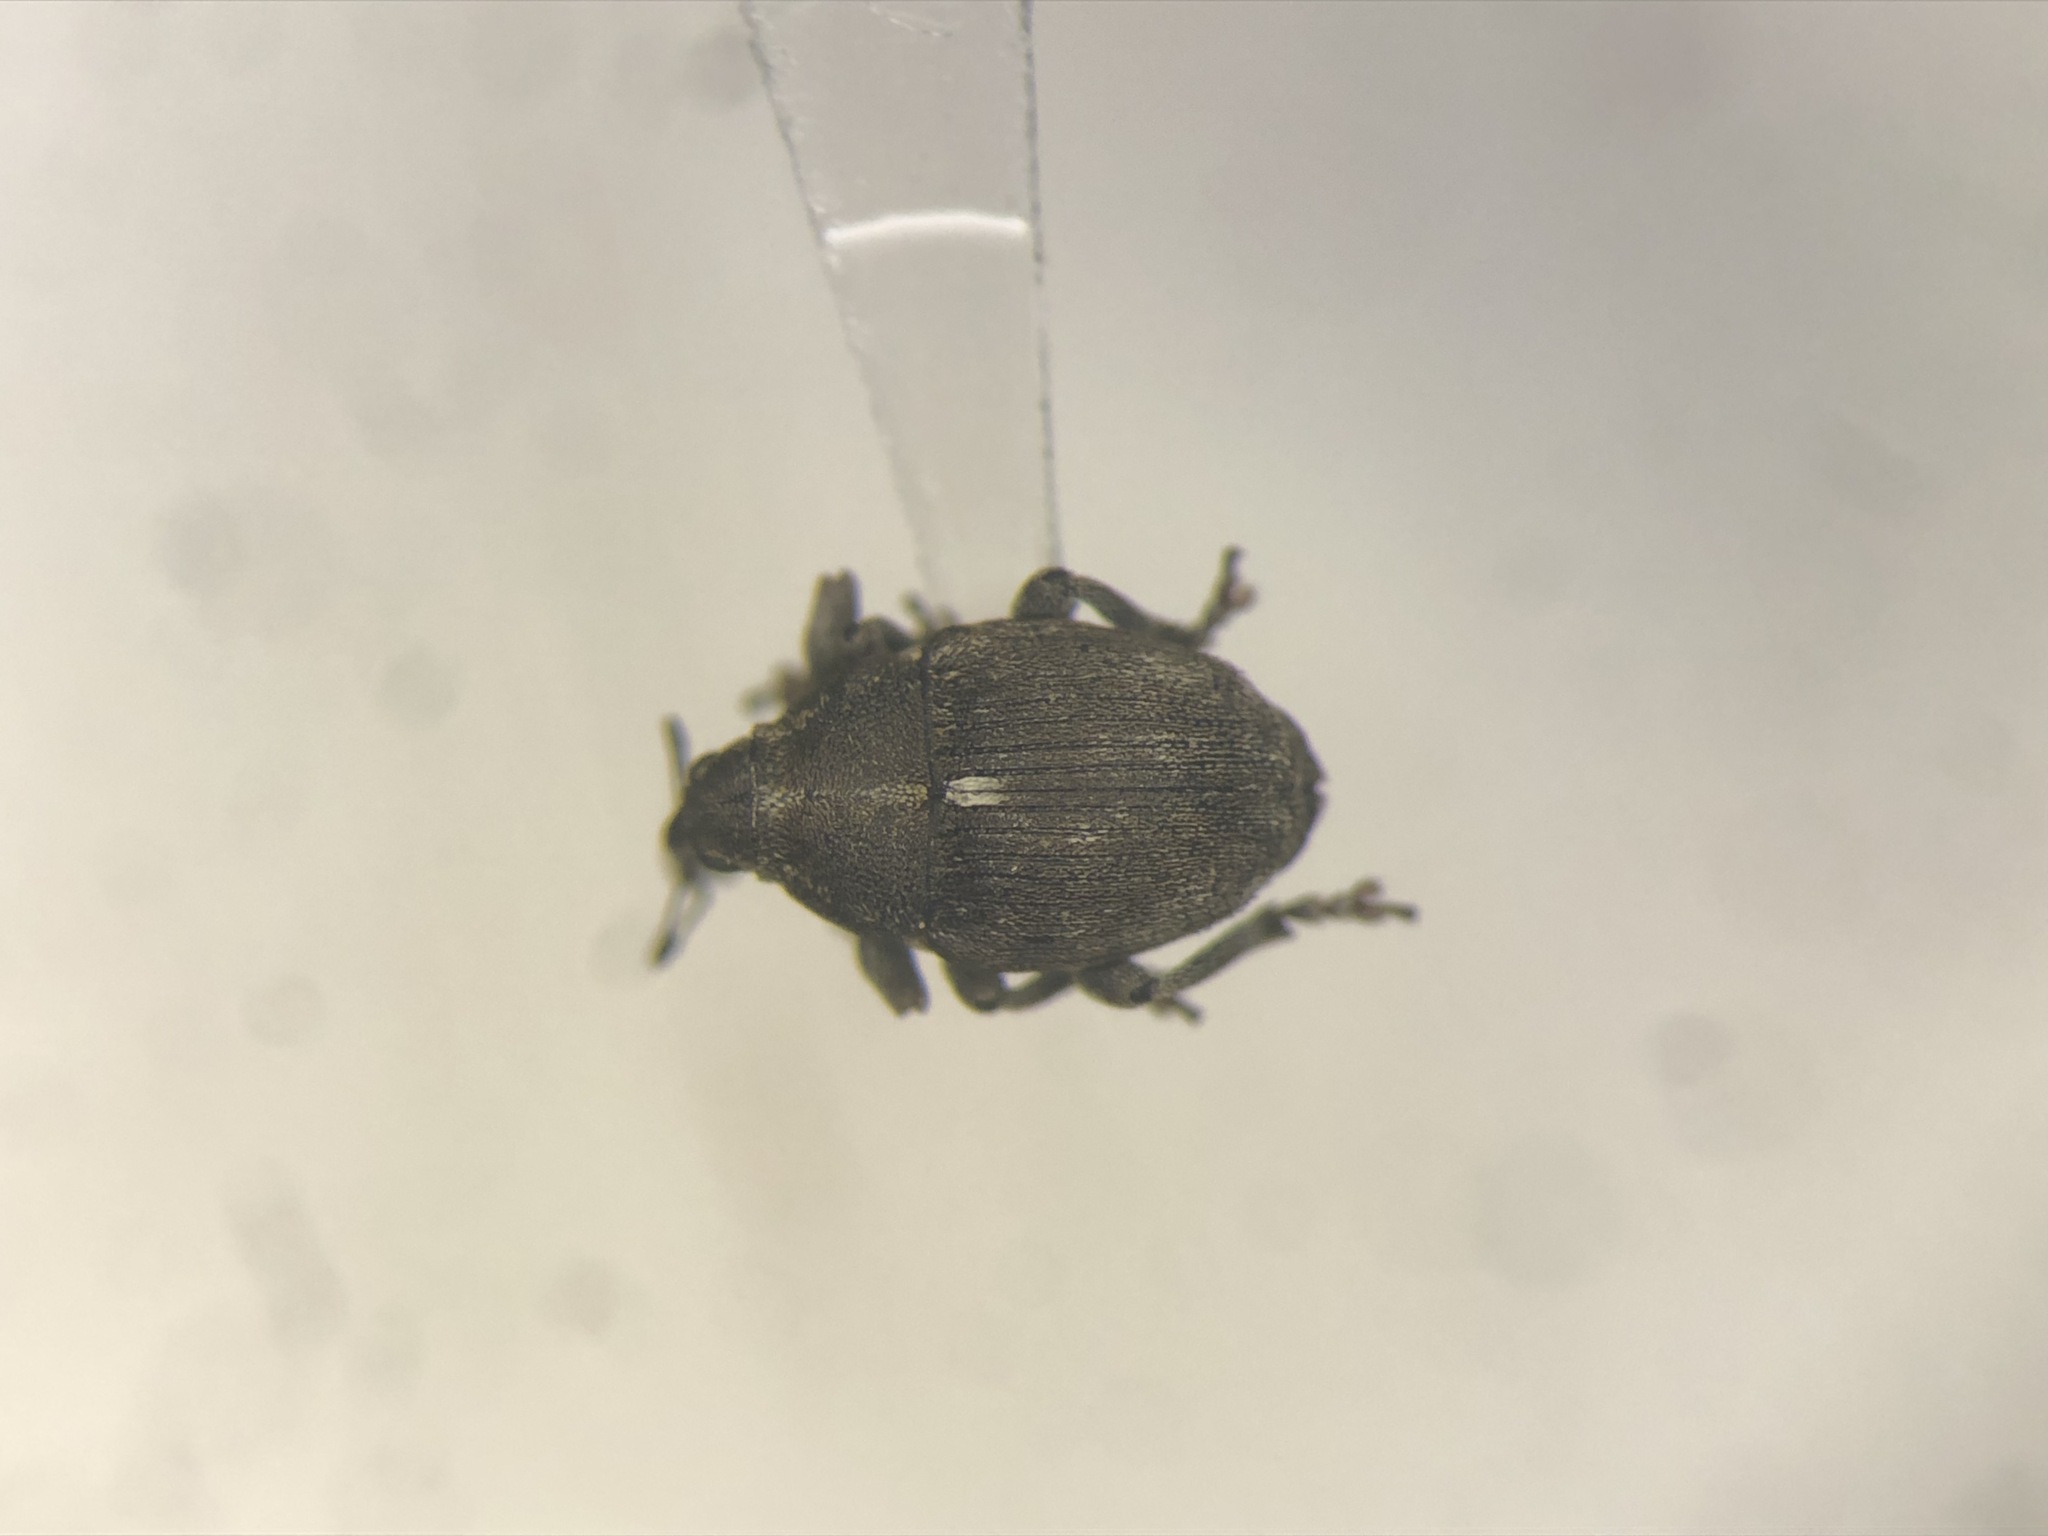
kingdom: Animalia
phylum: Arthropoda
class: Insecta
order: Coleoptera
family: Curculionidae
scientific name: Curculionidae
